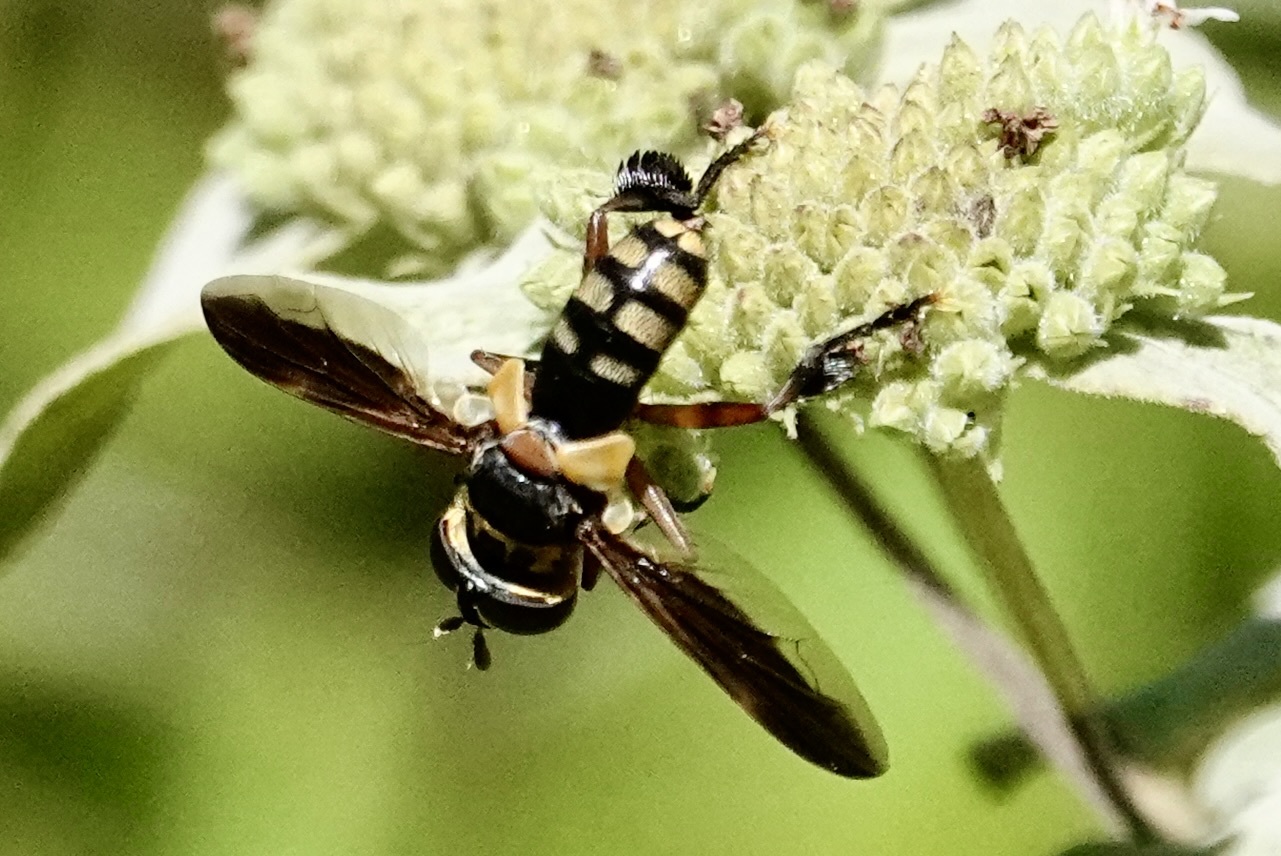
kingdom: Animalia
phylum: Arthropoda
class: Insecta
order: Diptera
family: Tachinidae
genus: Trichopoda
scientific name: Trichopoda plumipes
